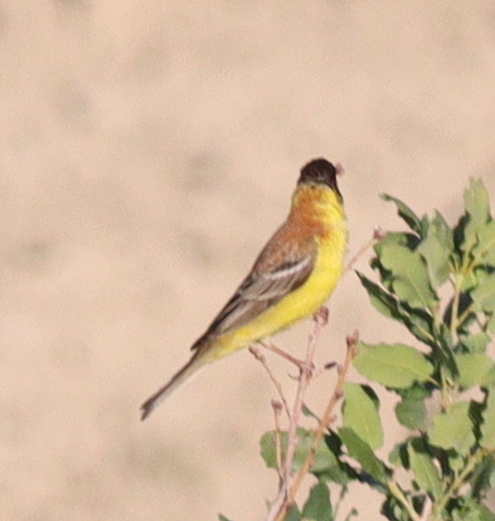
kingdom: Animalia
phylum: Chordata
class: Aves
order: Passeriformes
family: Emberizidae
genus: Emberiza
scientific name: Emberiza melanocephala
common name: Black-headed bunting
